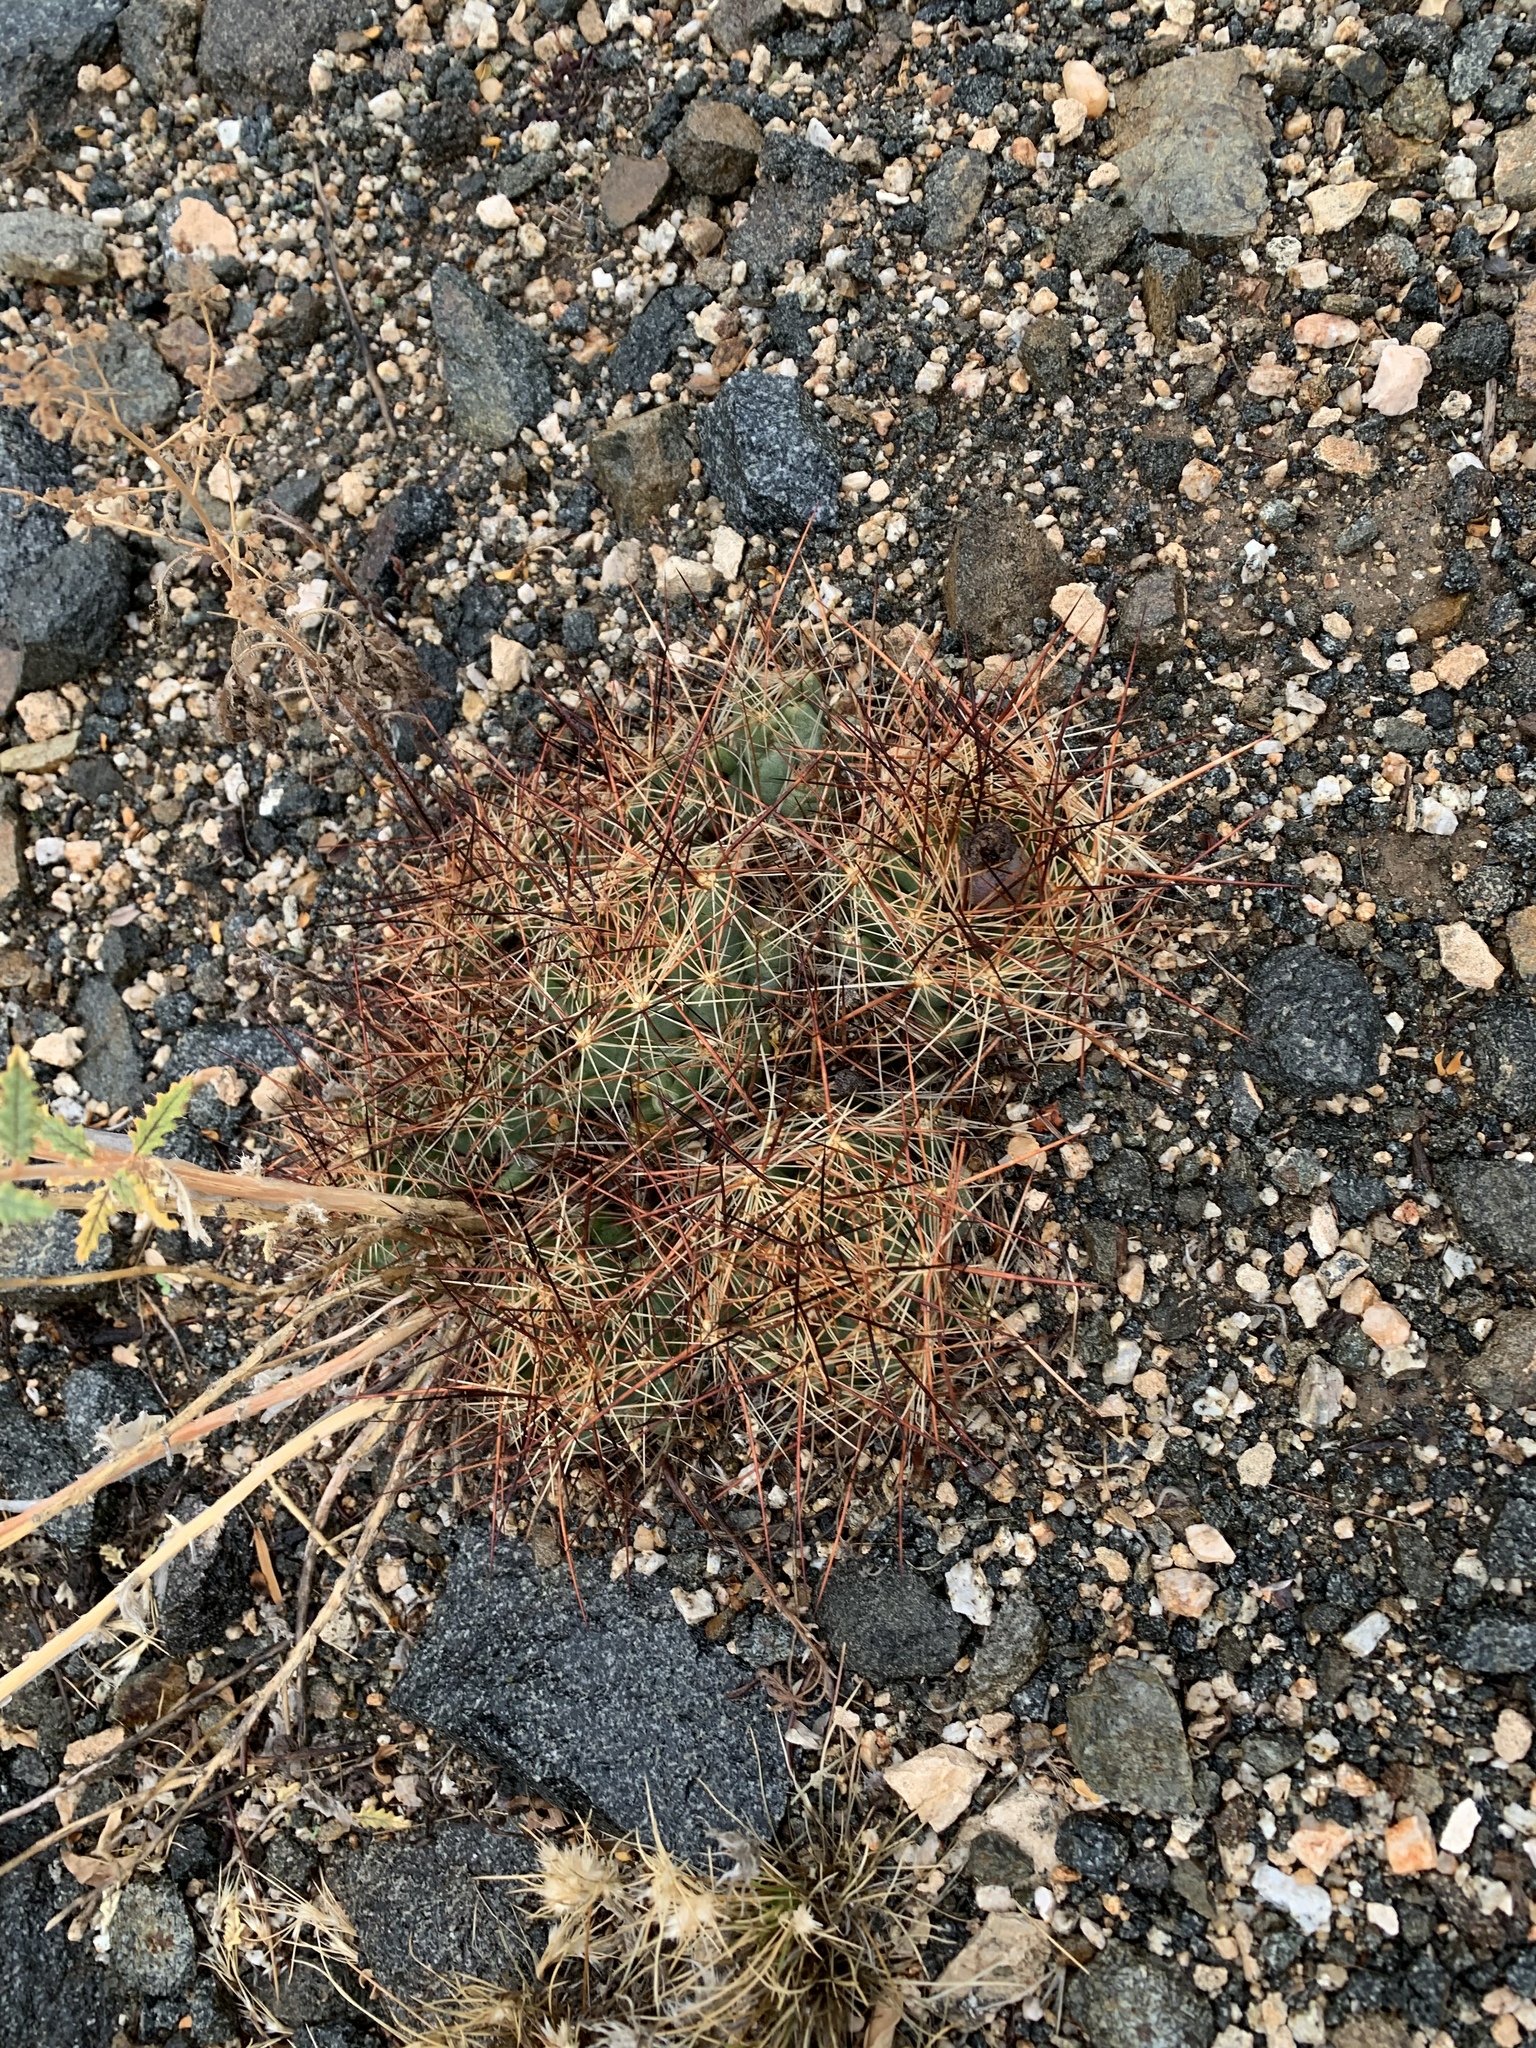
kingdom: Plantae
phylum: Tracheophyta
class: Magnoliopsida
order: Caryophyllales
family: Cactaceae
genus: Coryphantha
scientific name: Coryphantha macromeris
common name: Nipple beehive cactus
